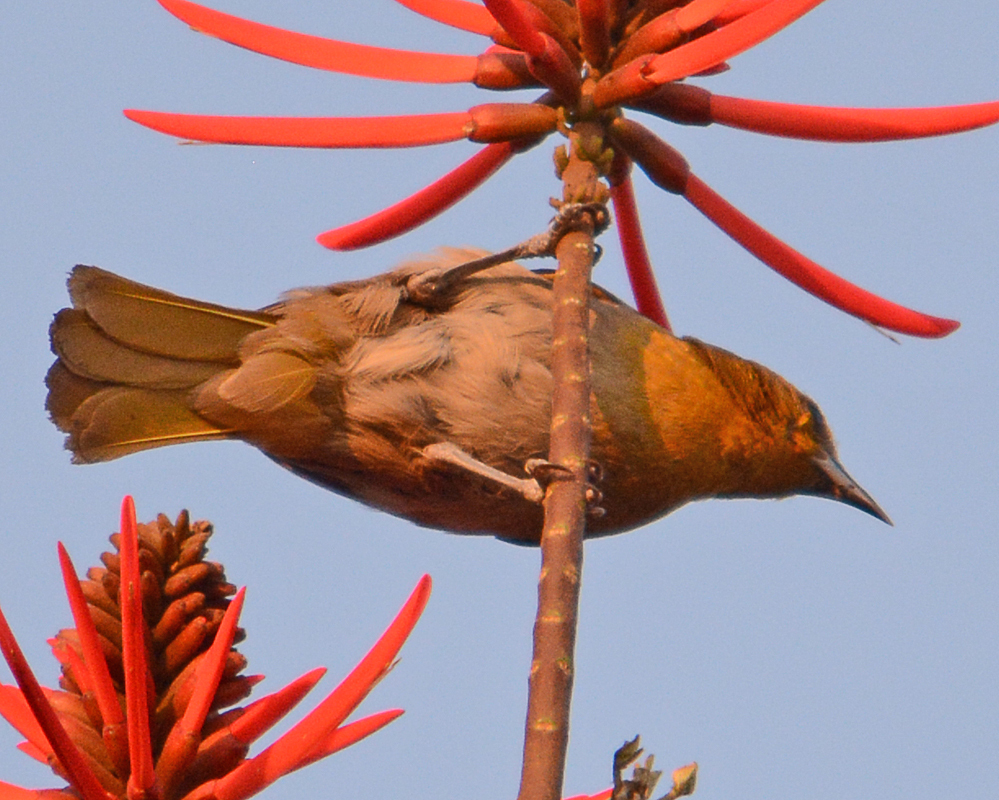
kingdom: Animalia
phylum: Chordata
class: Aves
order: Passeriformes
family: Icteridae
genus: Icterus
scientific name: Icterus abeillei
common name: Black-backed oriole
